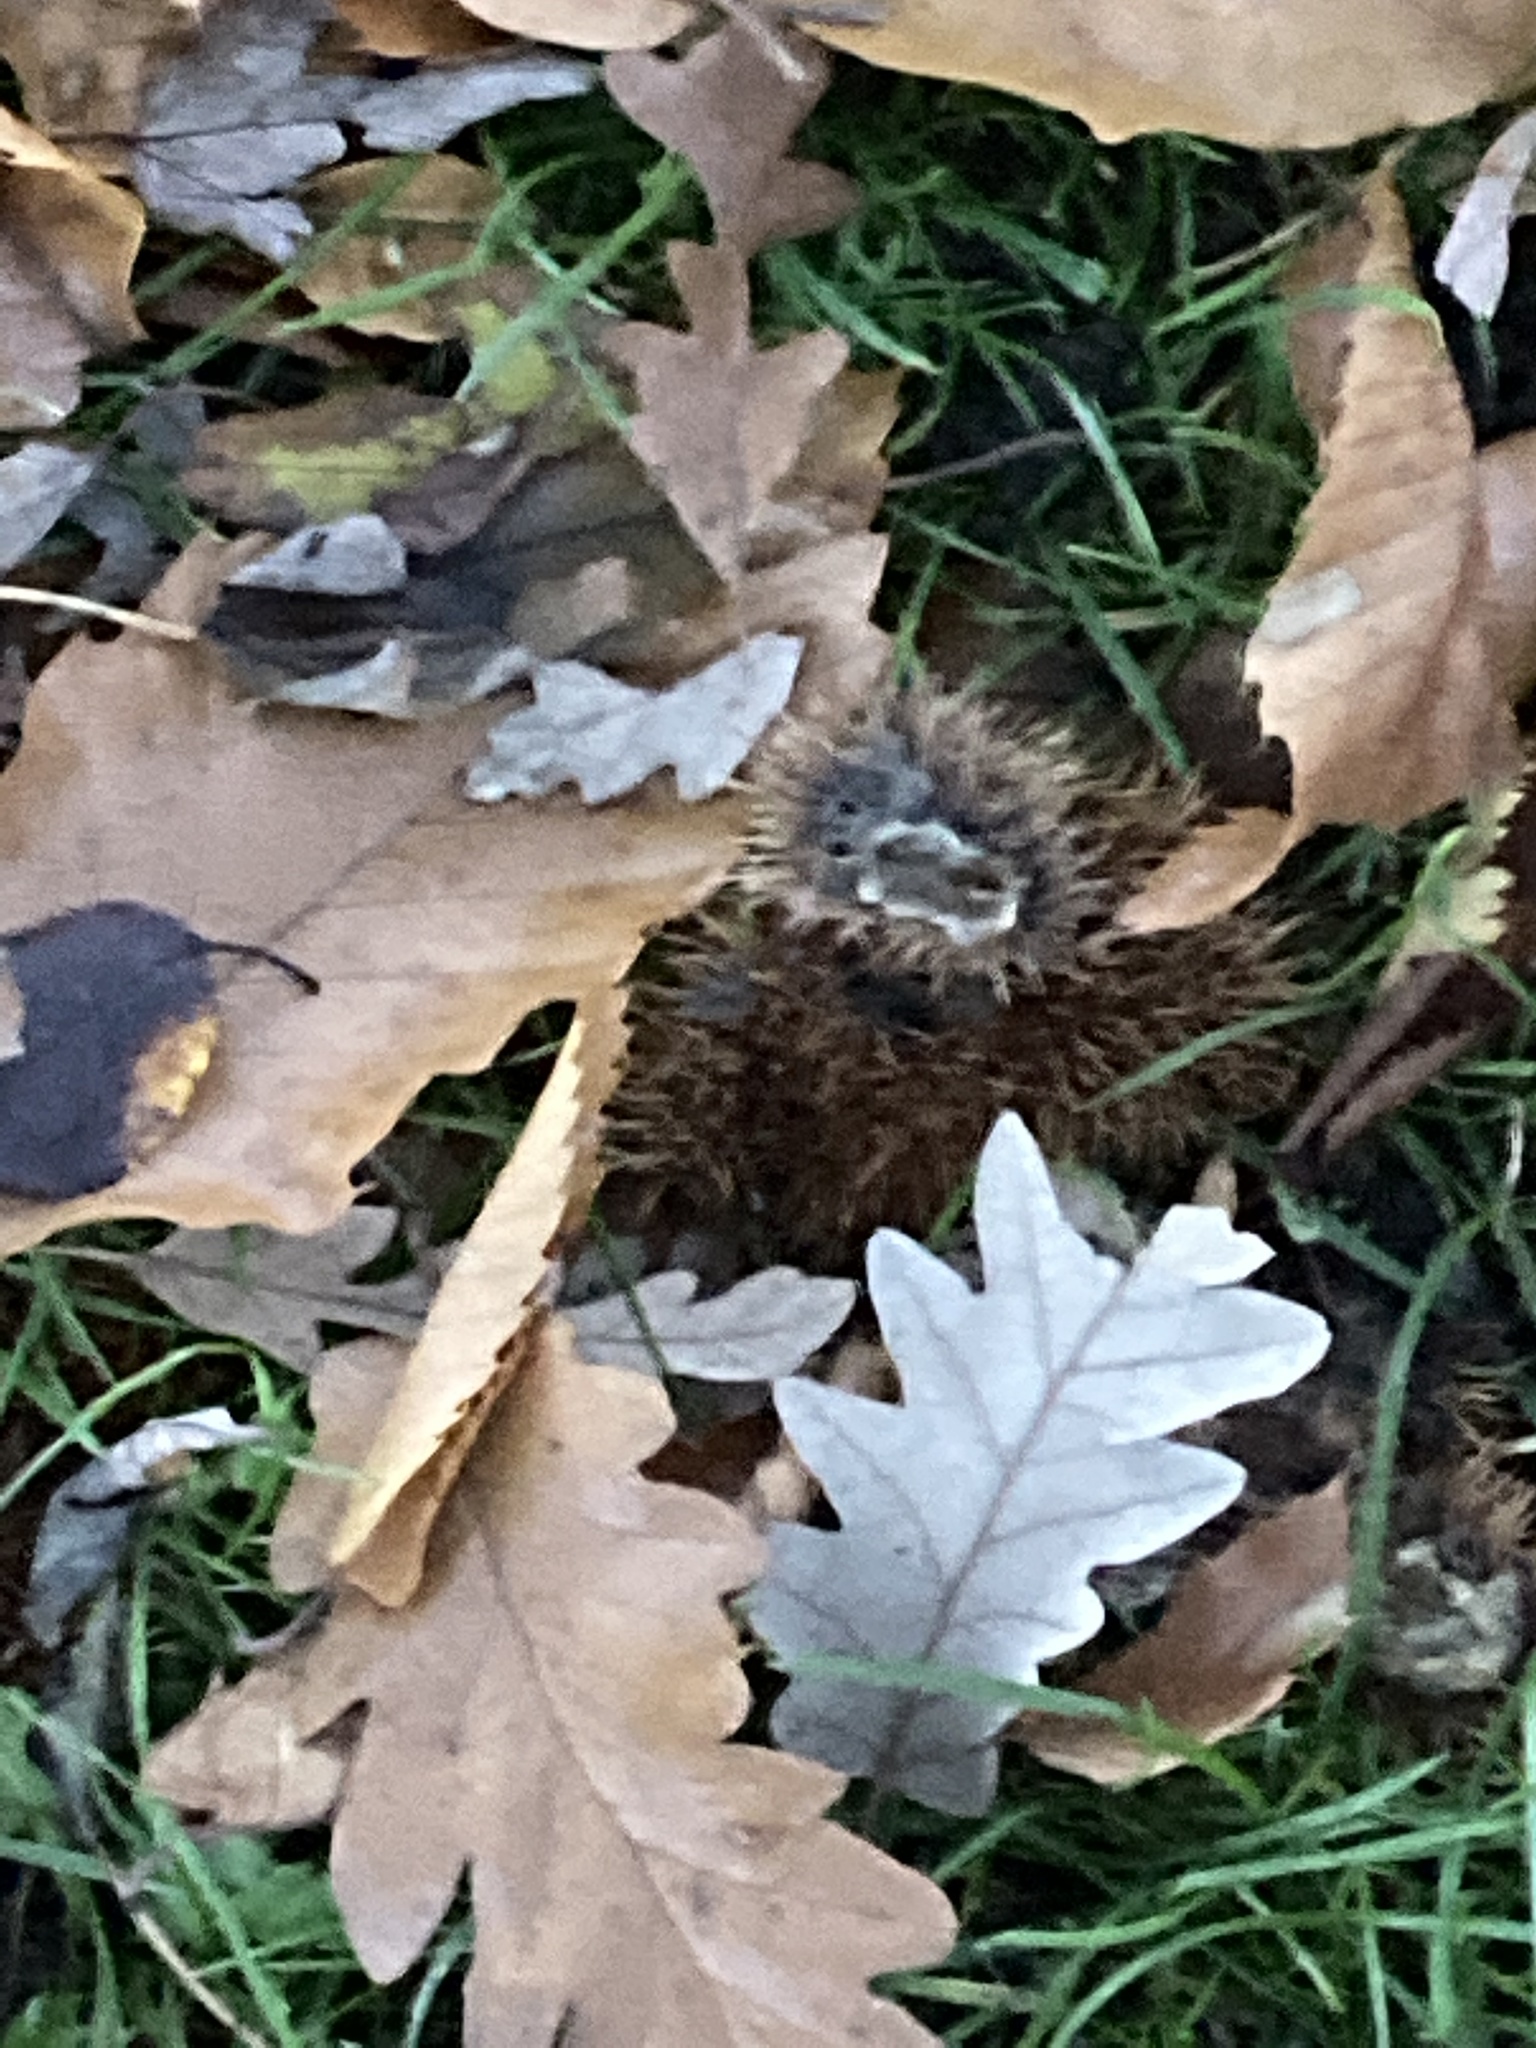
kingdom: Plantae
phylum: Tracheophyta
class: Magnoliopsida
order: Fagales
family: Fagaceae
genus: Castanea
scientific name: Castanea sativa
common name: Sweet chestnut
